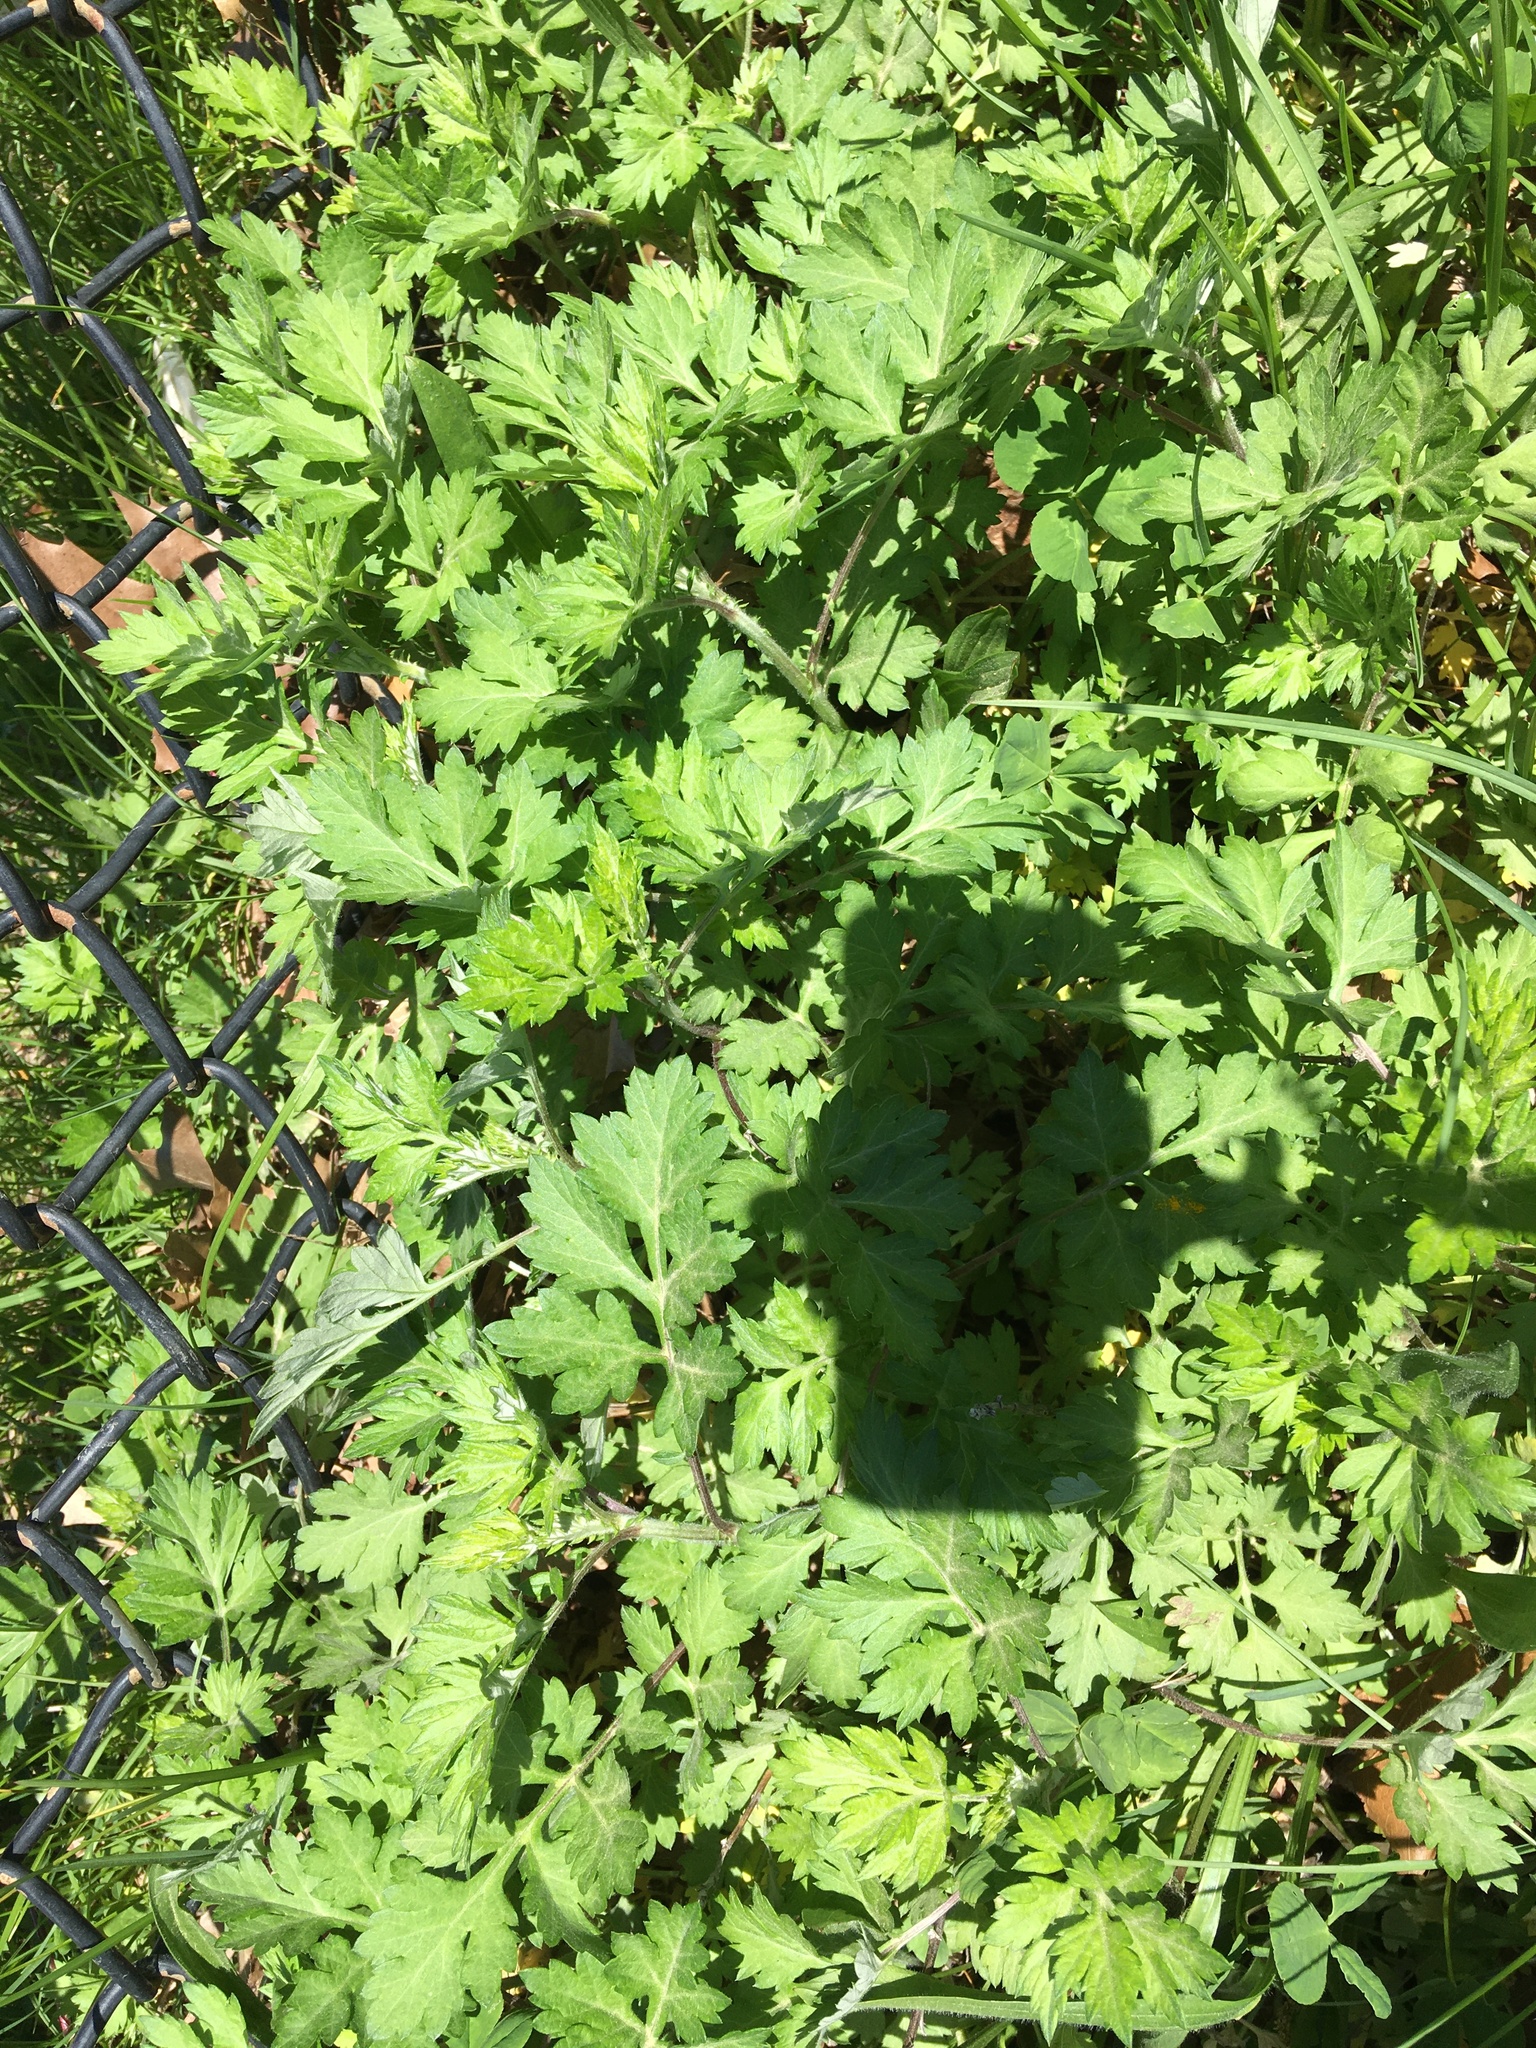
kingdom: Plantae
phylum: Tracheophyta
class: Magnoliopsida
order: Asterales
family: Asteraceae
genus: Artemisia
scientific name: Artemisia vulgaris
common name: Mugwort
